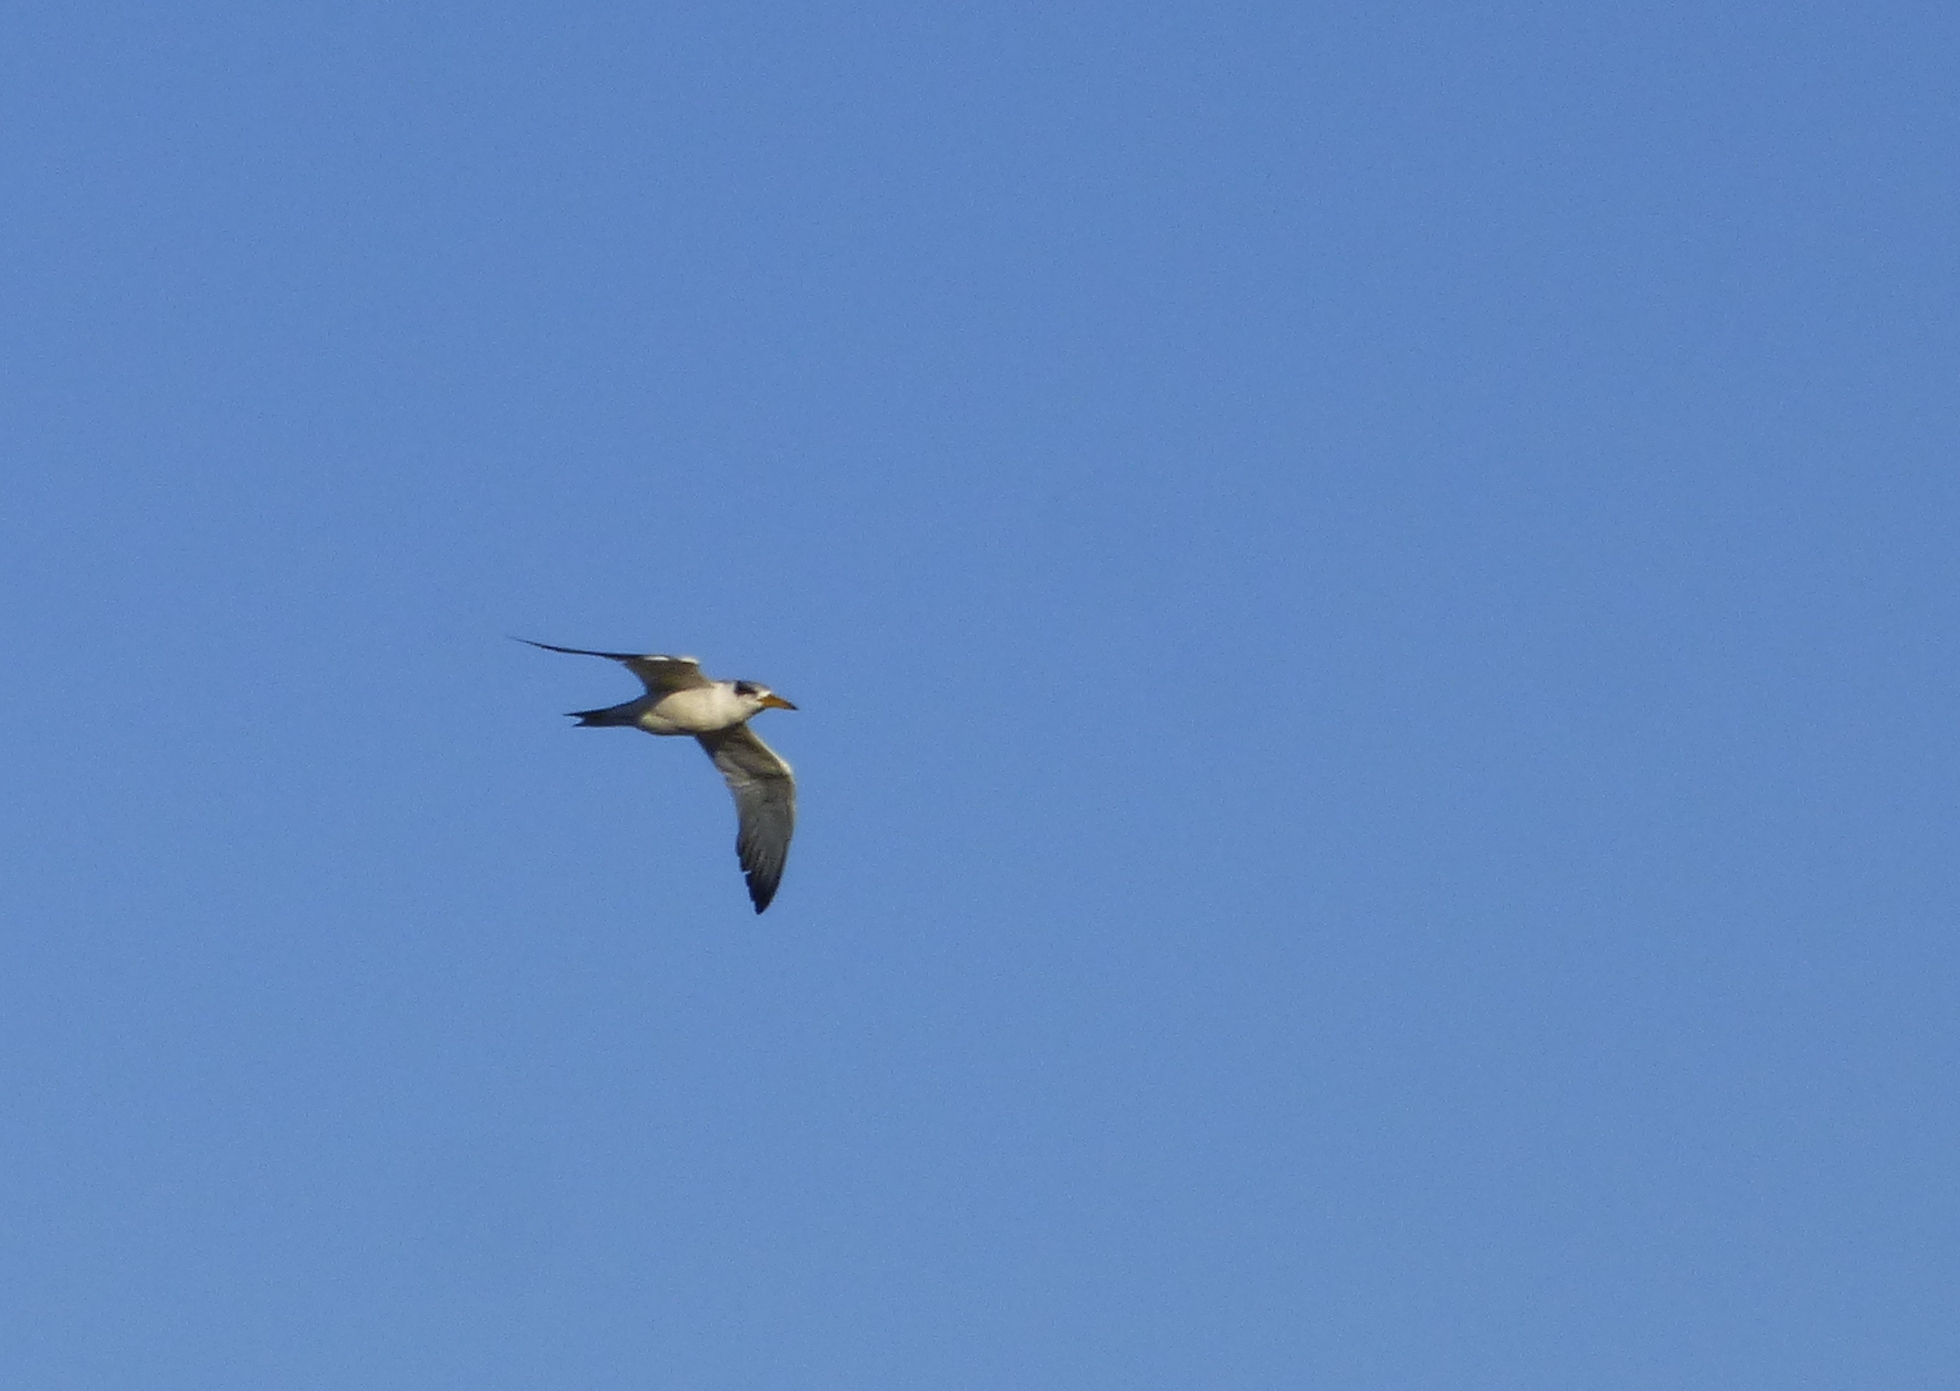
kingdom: Animalia
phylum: Chordata
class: Aves
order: Charadriiformes
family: Laridae
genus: Phaetusa
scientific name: Phaetusa simplex
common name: Large-billed tern
